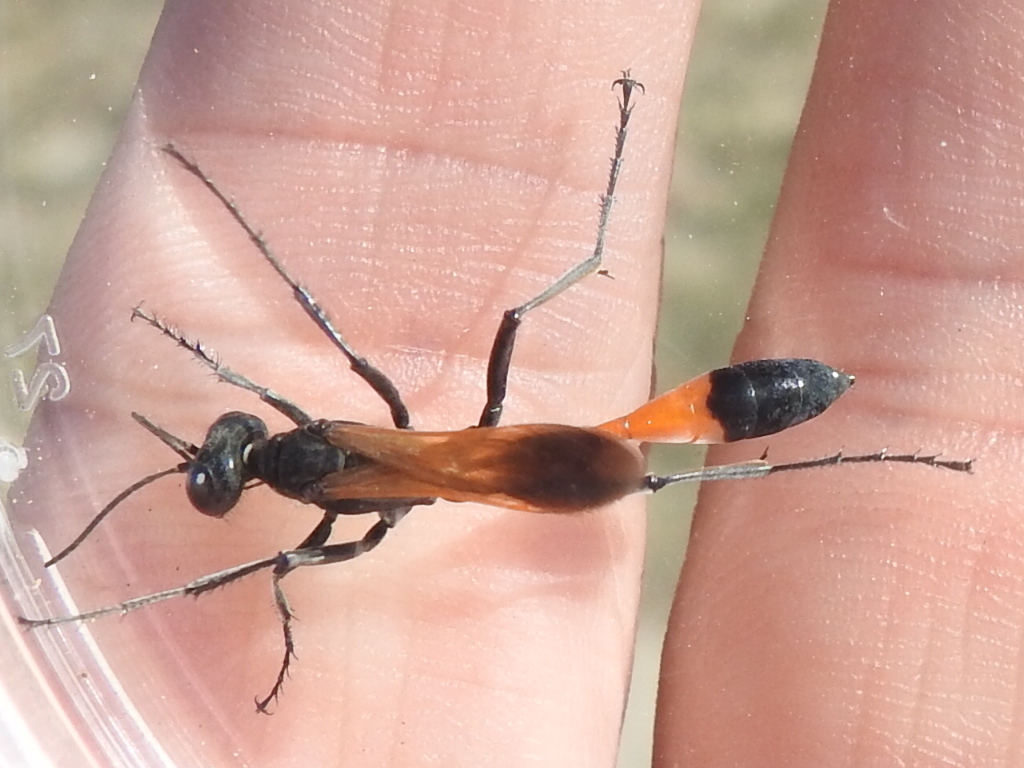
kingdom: Animalia
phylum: Arthropoda
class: Insecta
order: Hymenoptera
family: Sphecidae
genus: Ammophila
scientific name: Ammophila
